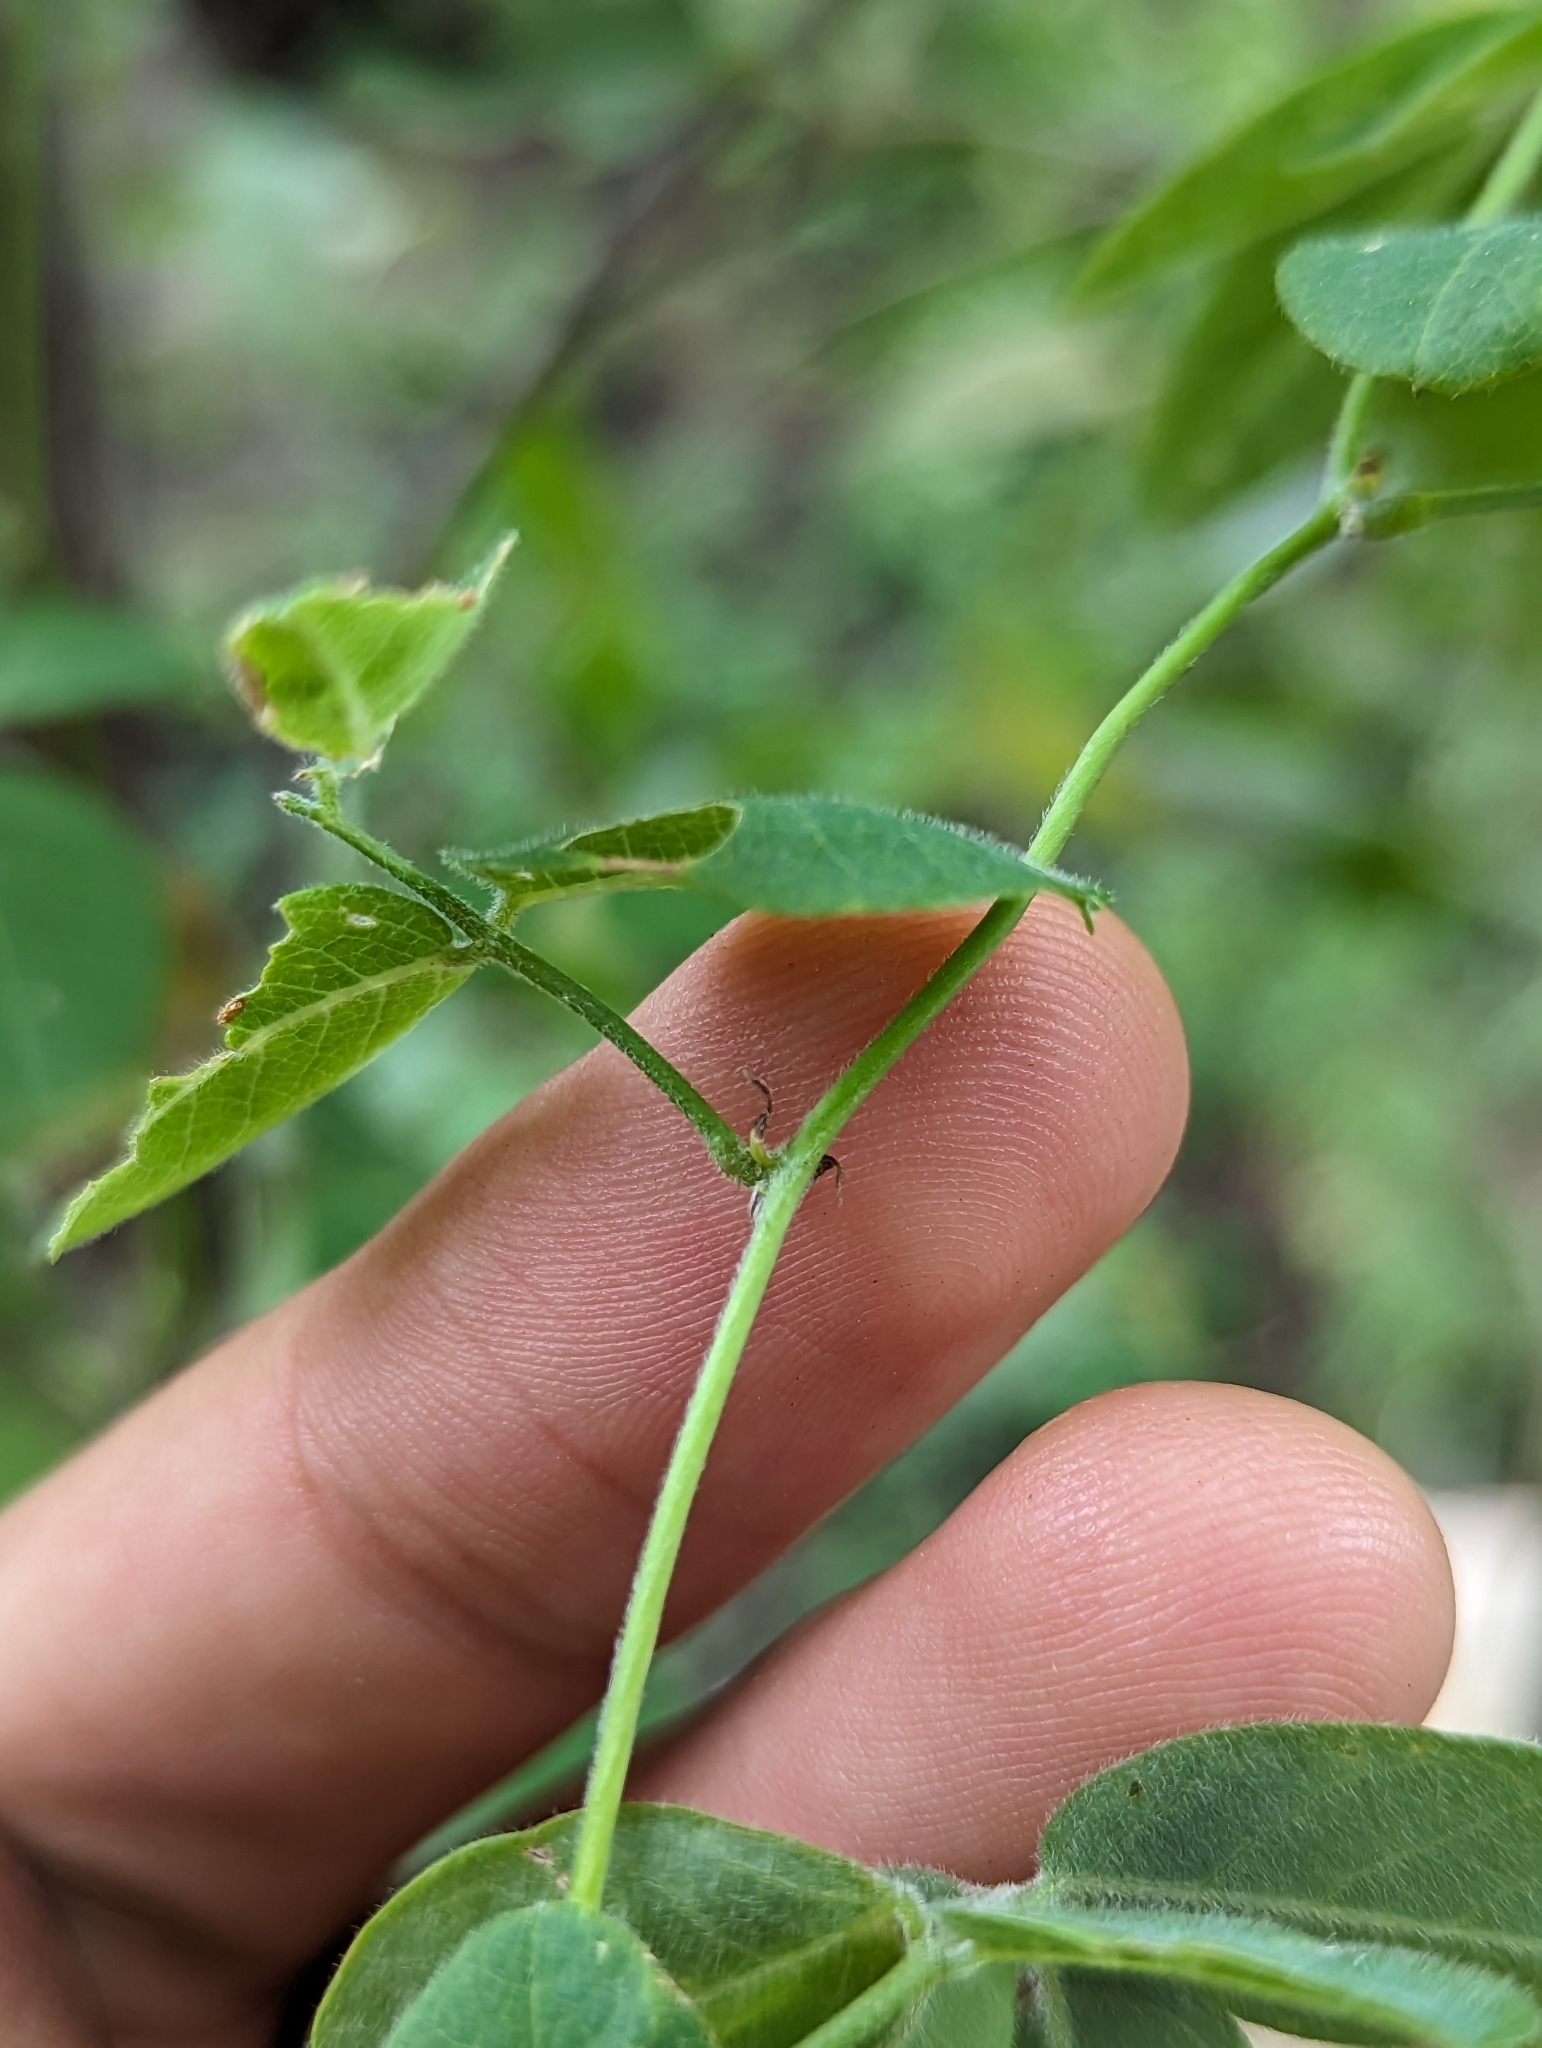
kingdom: Plantae
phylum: Tracheophyta
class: Magnoliopsida
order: Fabales
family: Fabaceae
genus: Nissolia
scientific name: Nissolia setosa
